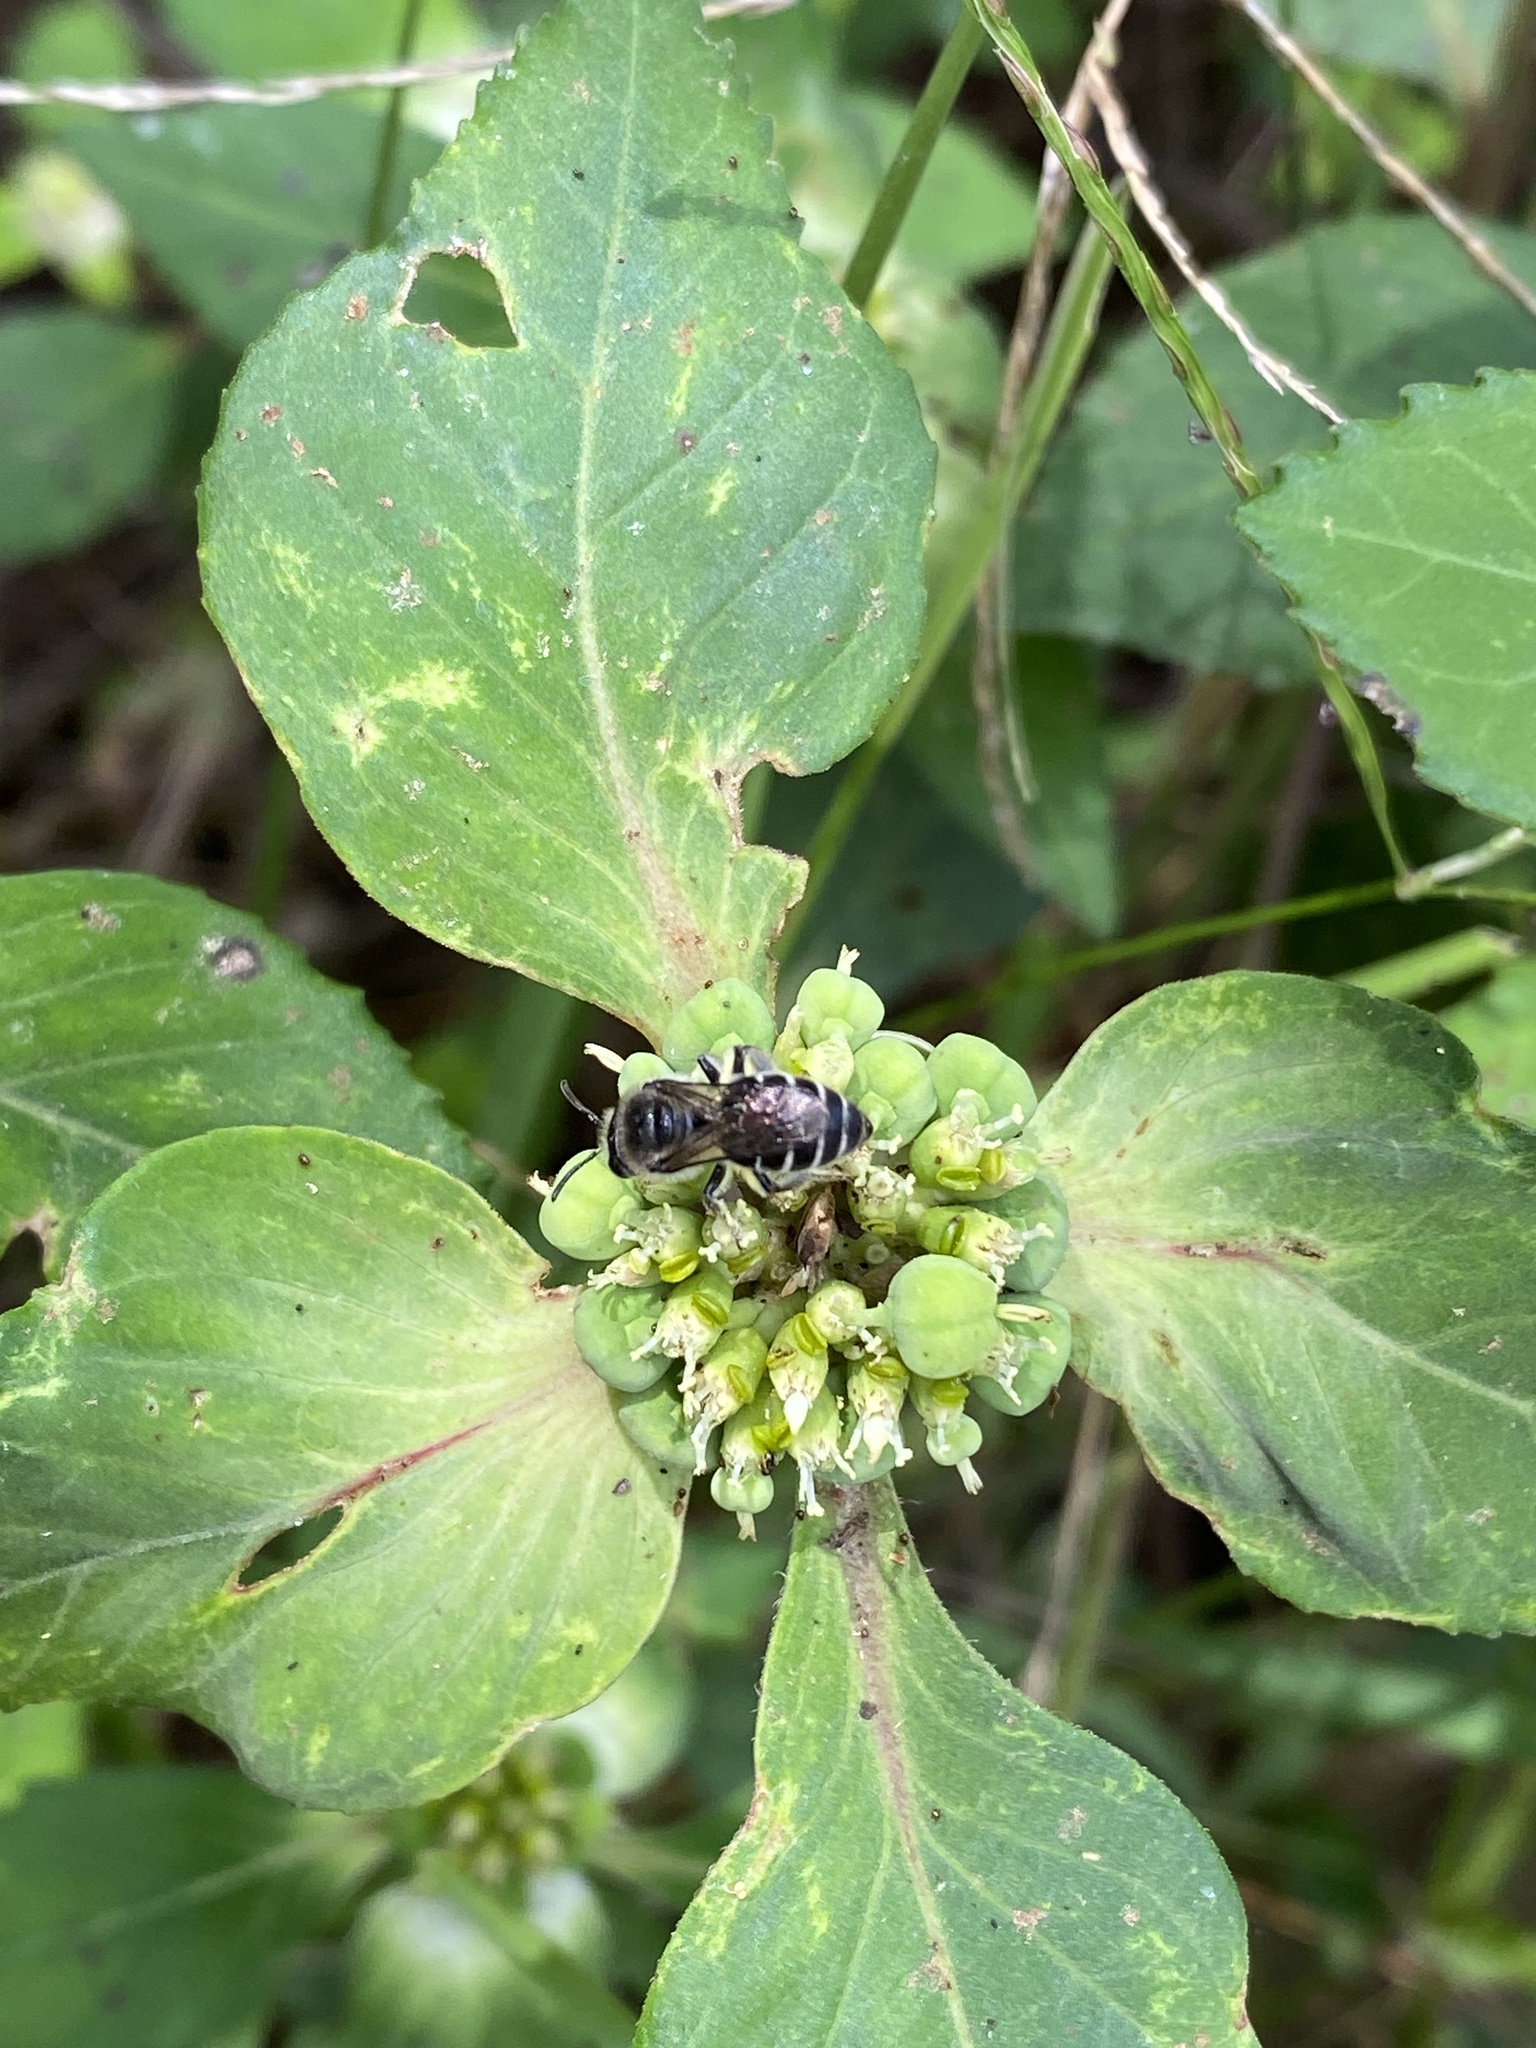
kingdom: Animalia
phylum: Arthropoda
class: Insecta
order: Hymenoptera
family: Colletidae
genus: Colletes
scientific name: Colletes
